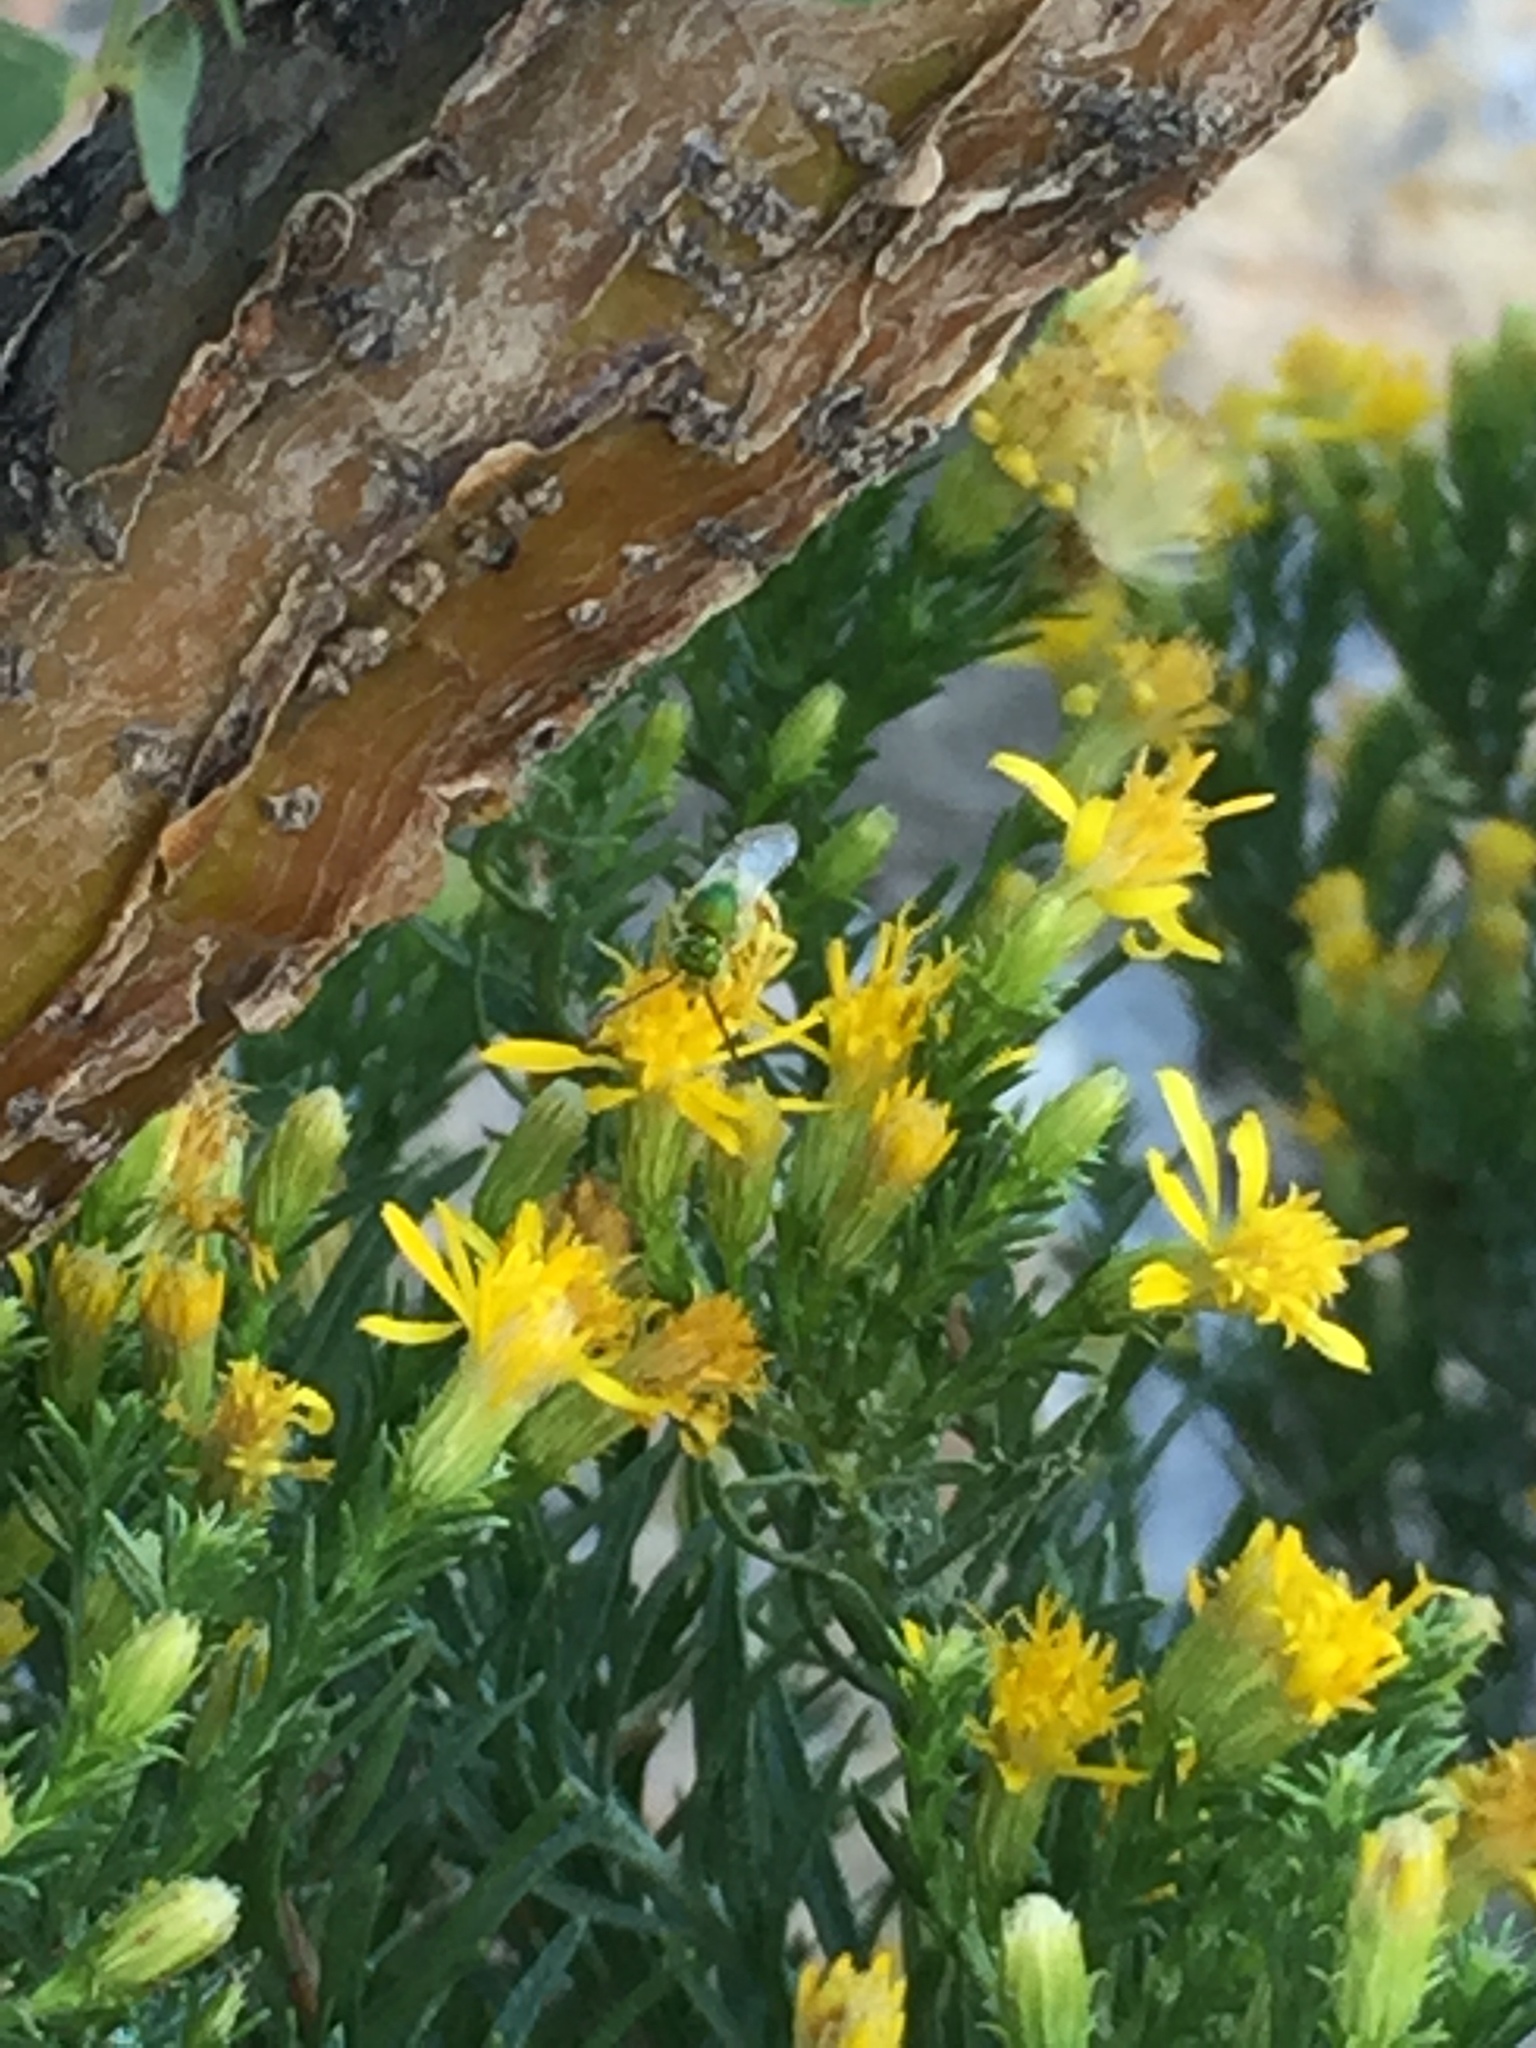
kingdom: Animalia
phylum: Arthropoda
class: Insecta
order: Hymenoptera
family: Halictidae
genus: Agapostemon
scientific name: Agapostemon melliventris
